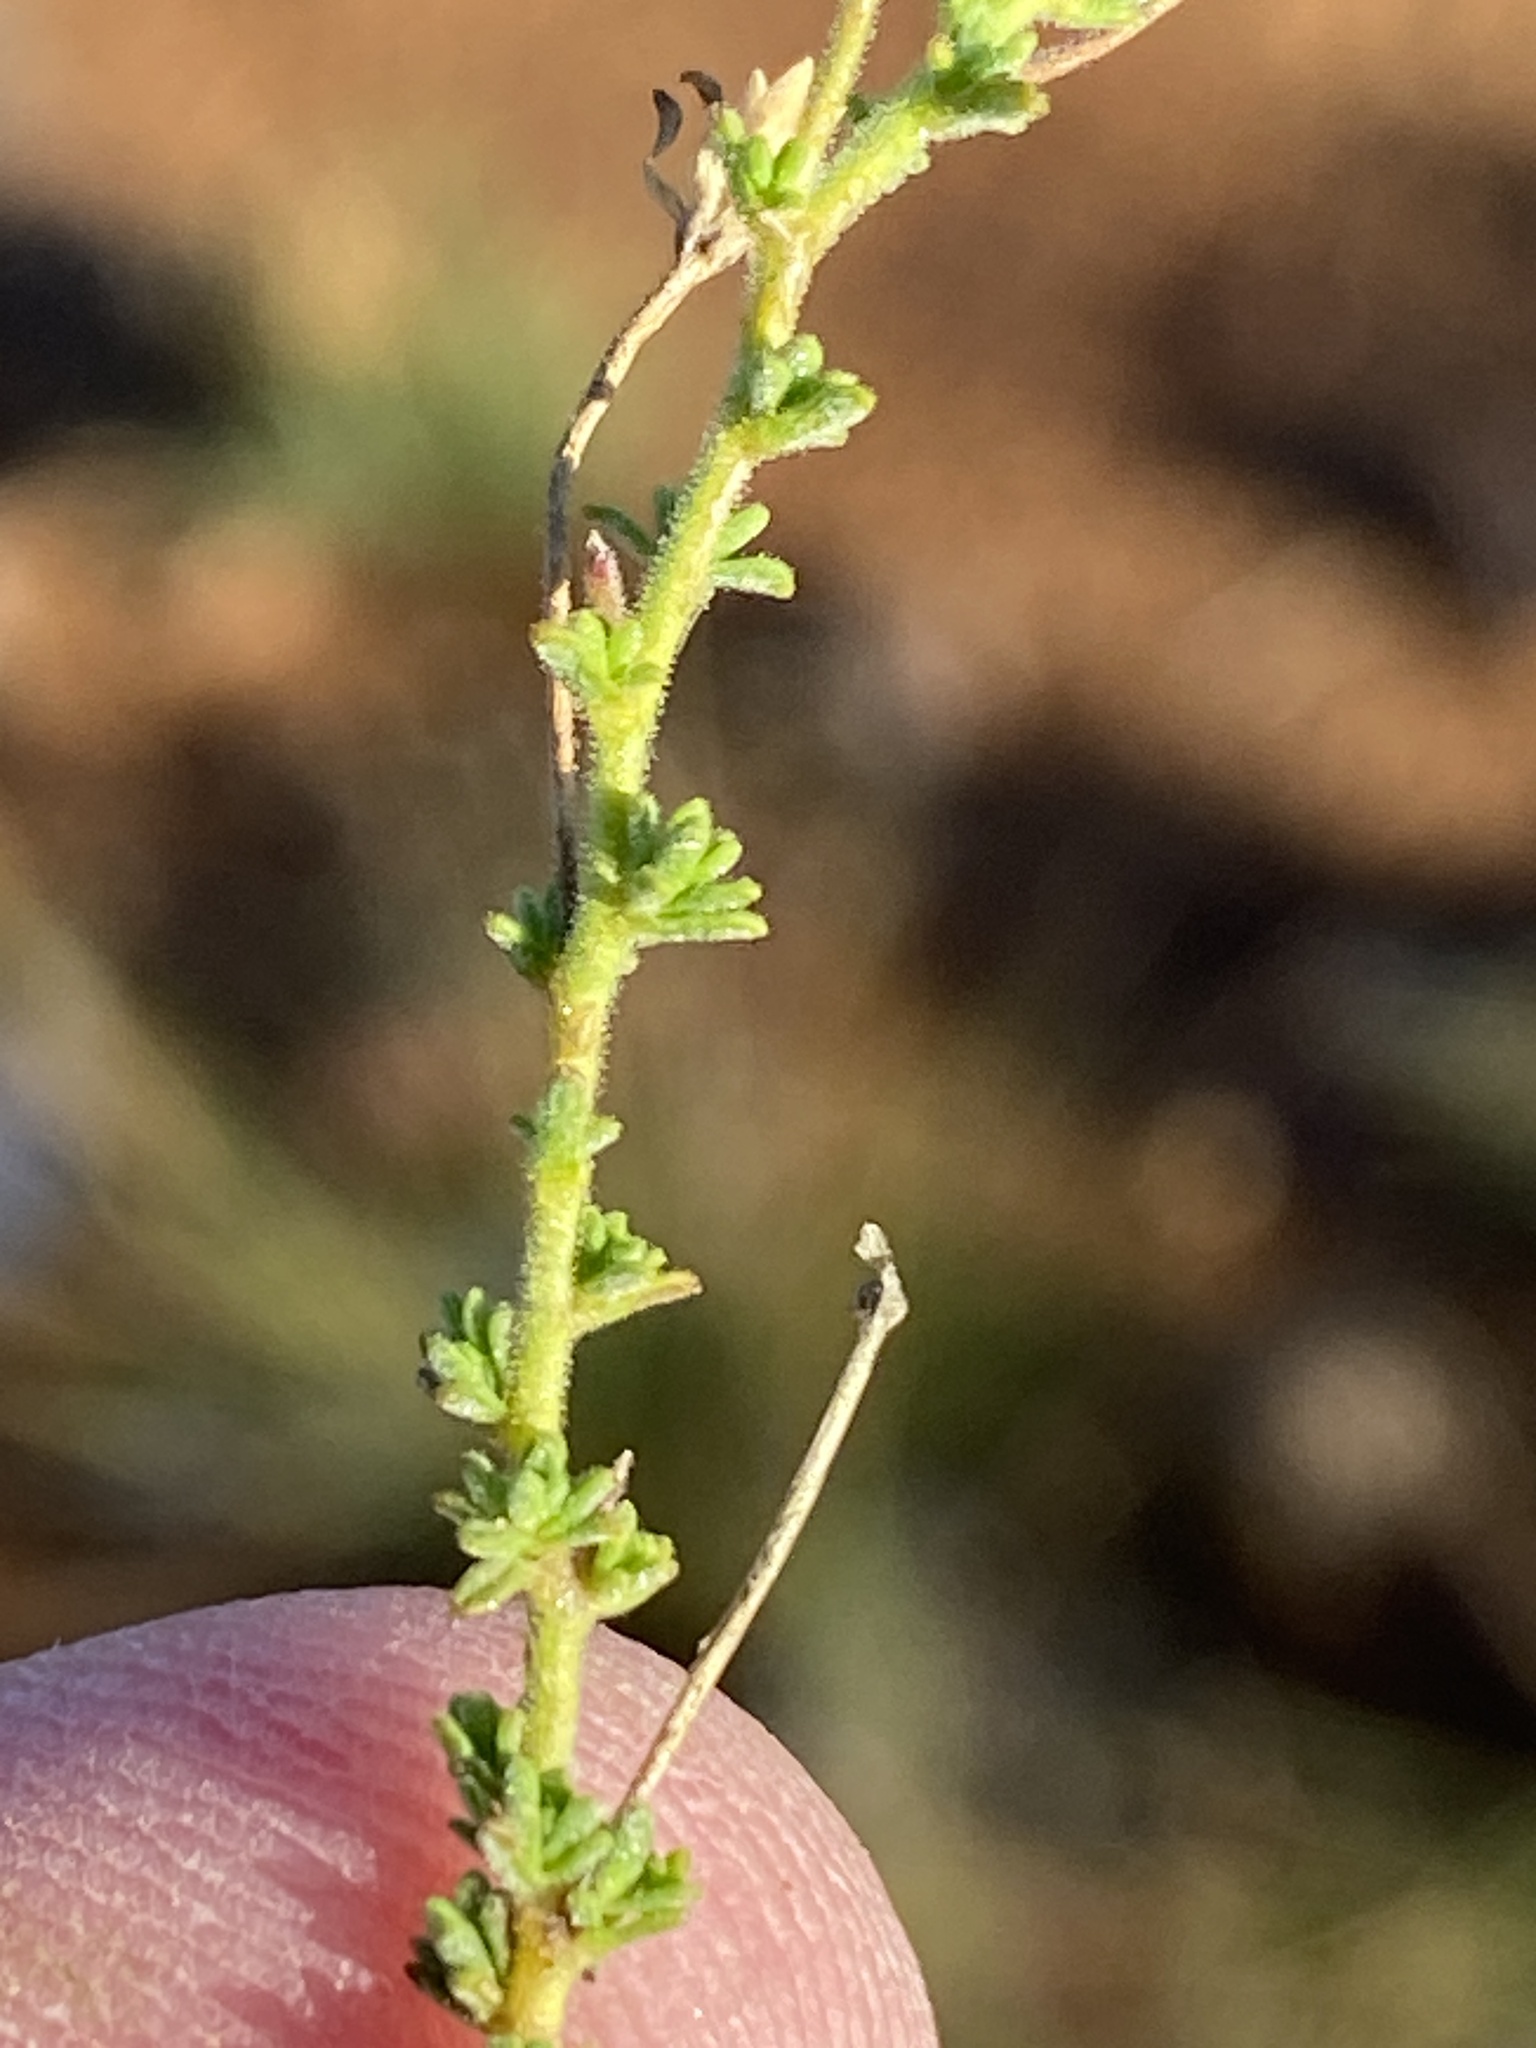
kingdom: Plantae
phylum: Tracheophyta
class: Magnoliopsida
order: Lamiales
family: Scrophulariaceae
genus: Jamesbrittenia
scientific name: Jamesbrittenia aspalathoides
